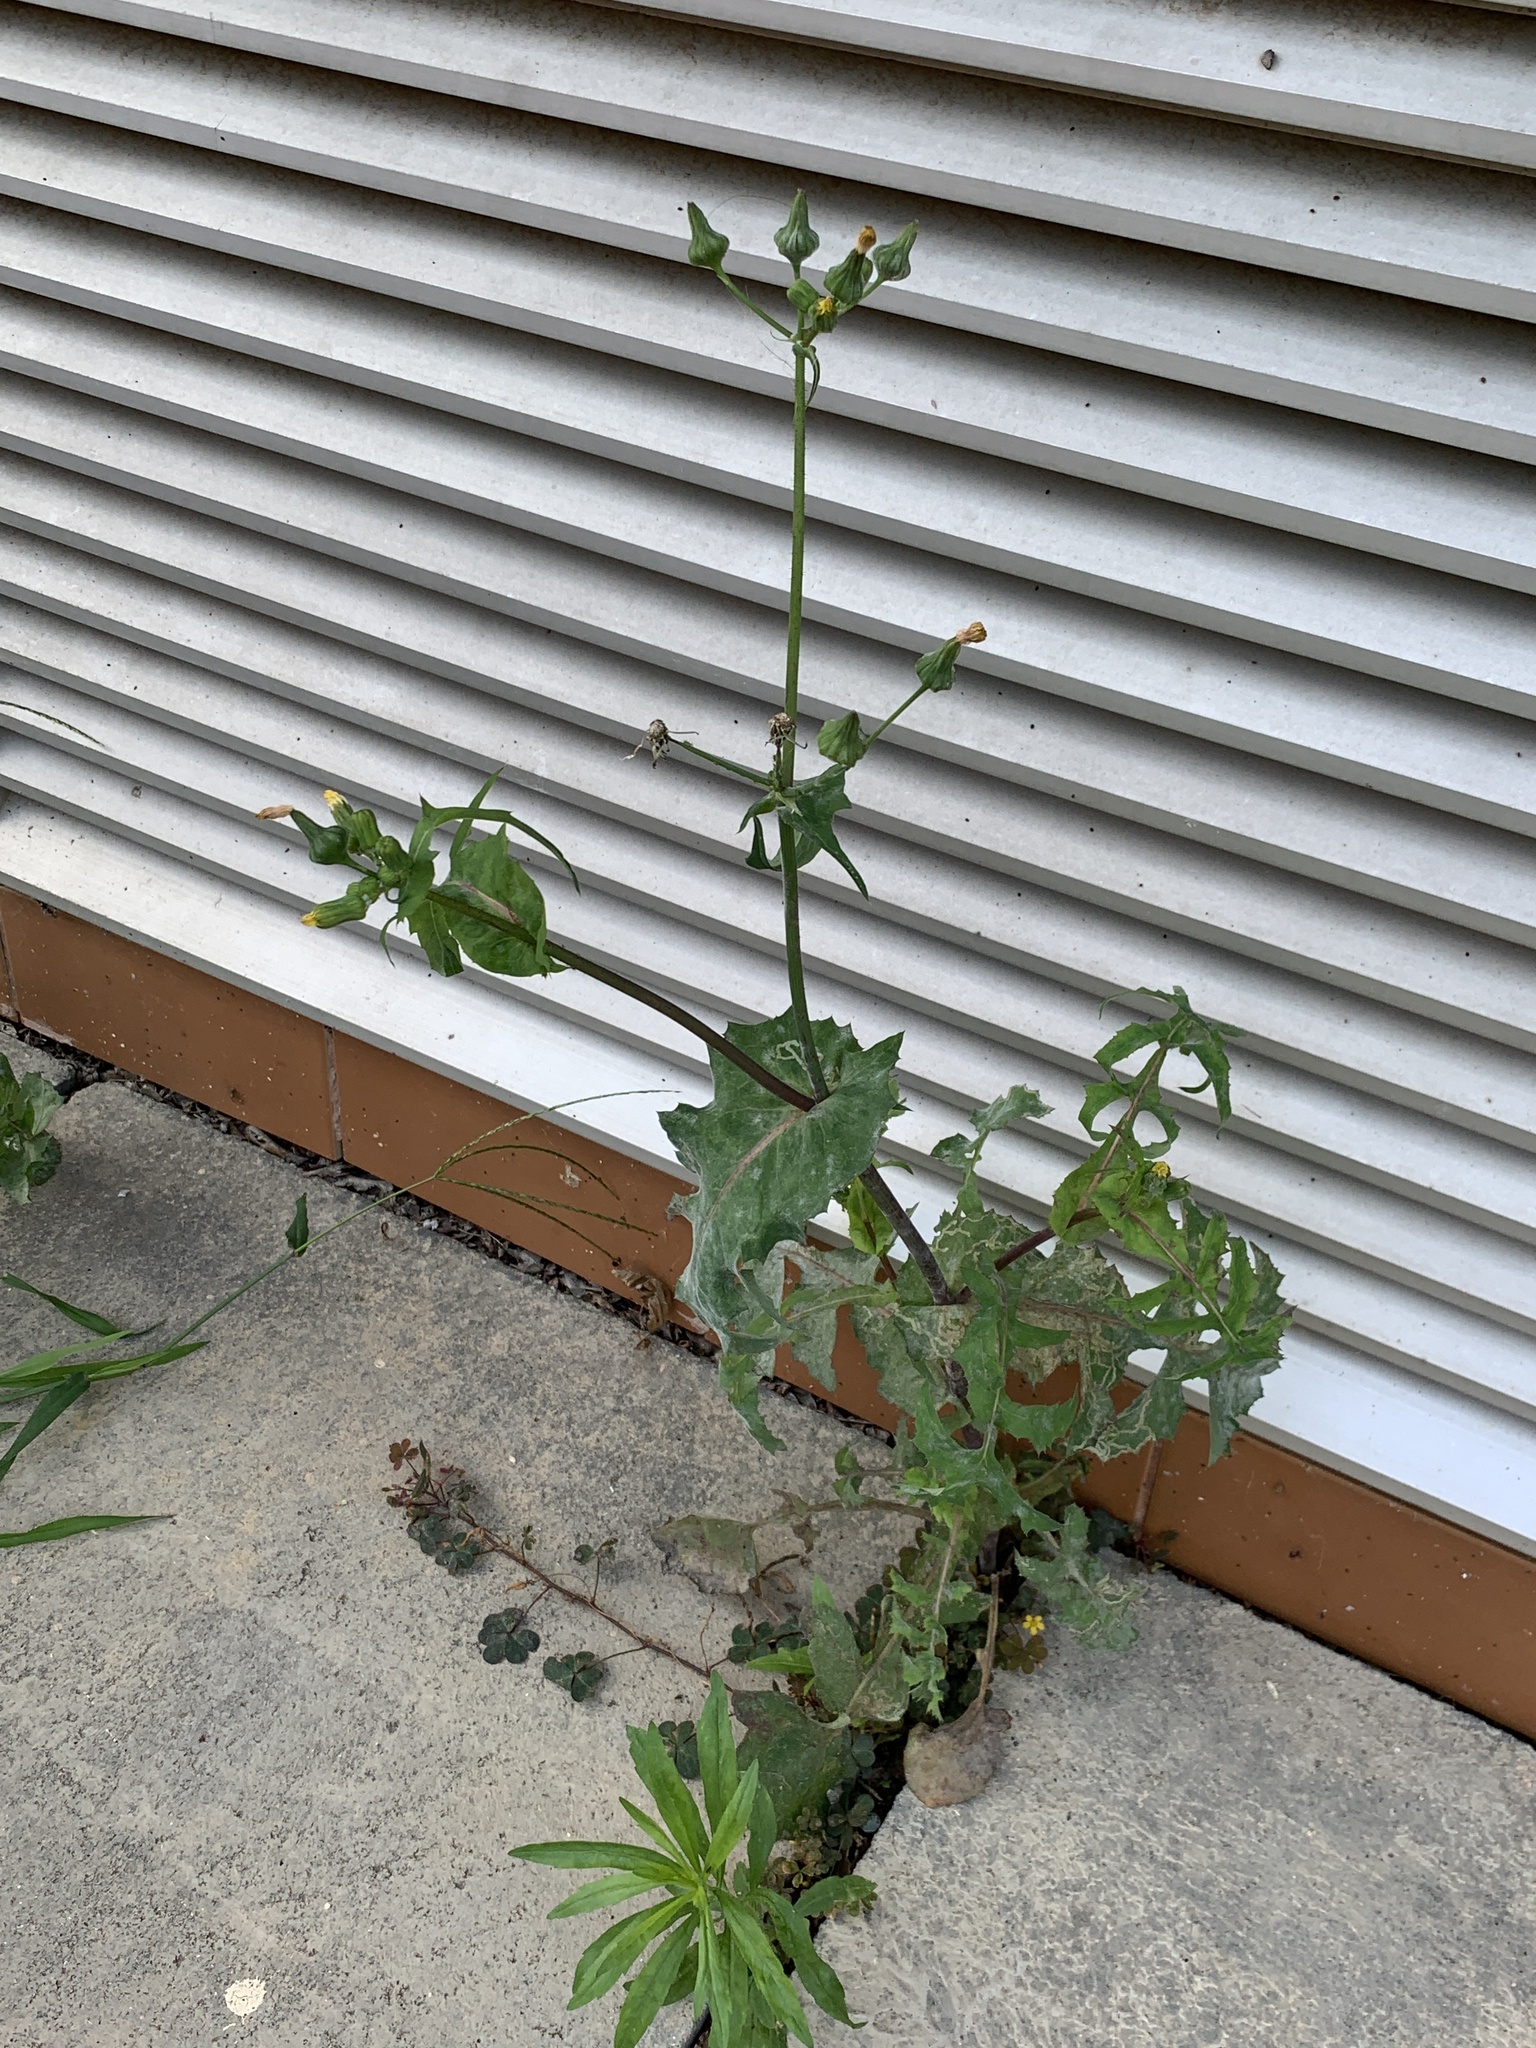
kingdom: Plantae
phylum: Tracheophyta
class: Magnoliopsida
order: Asterales
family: Asteraceae
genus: Sonchus
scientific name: Sonchus oleraceus
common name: Common sowthistle
